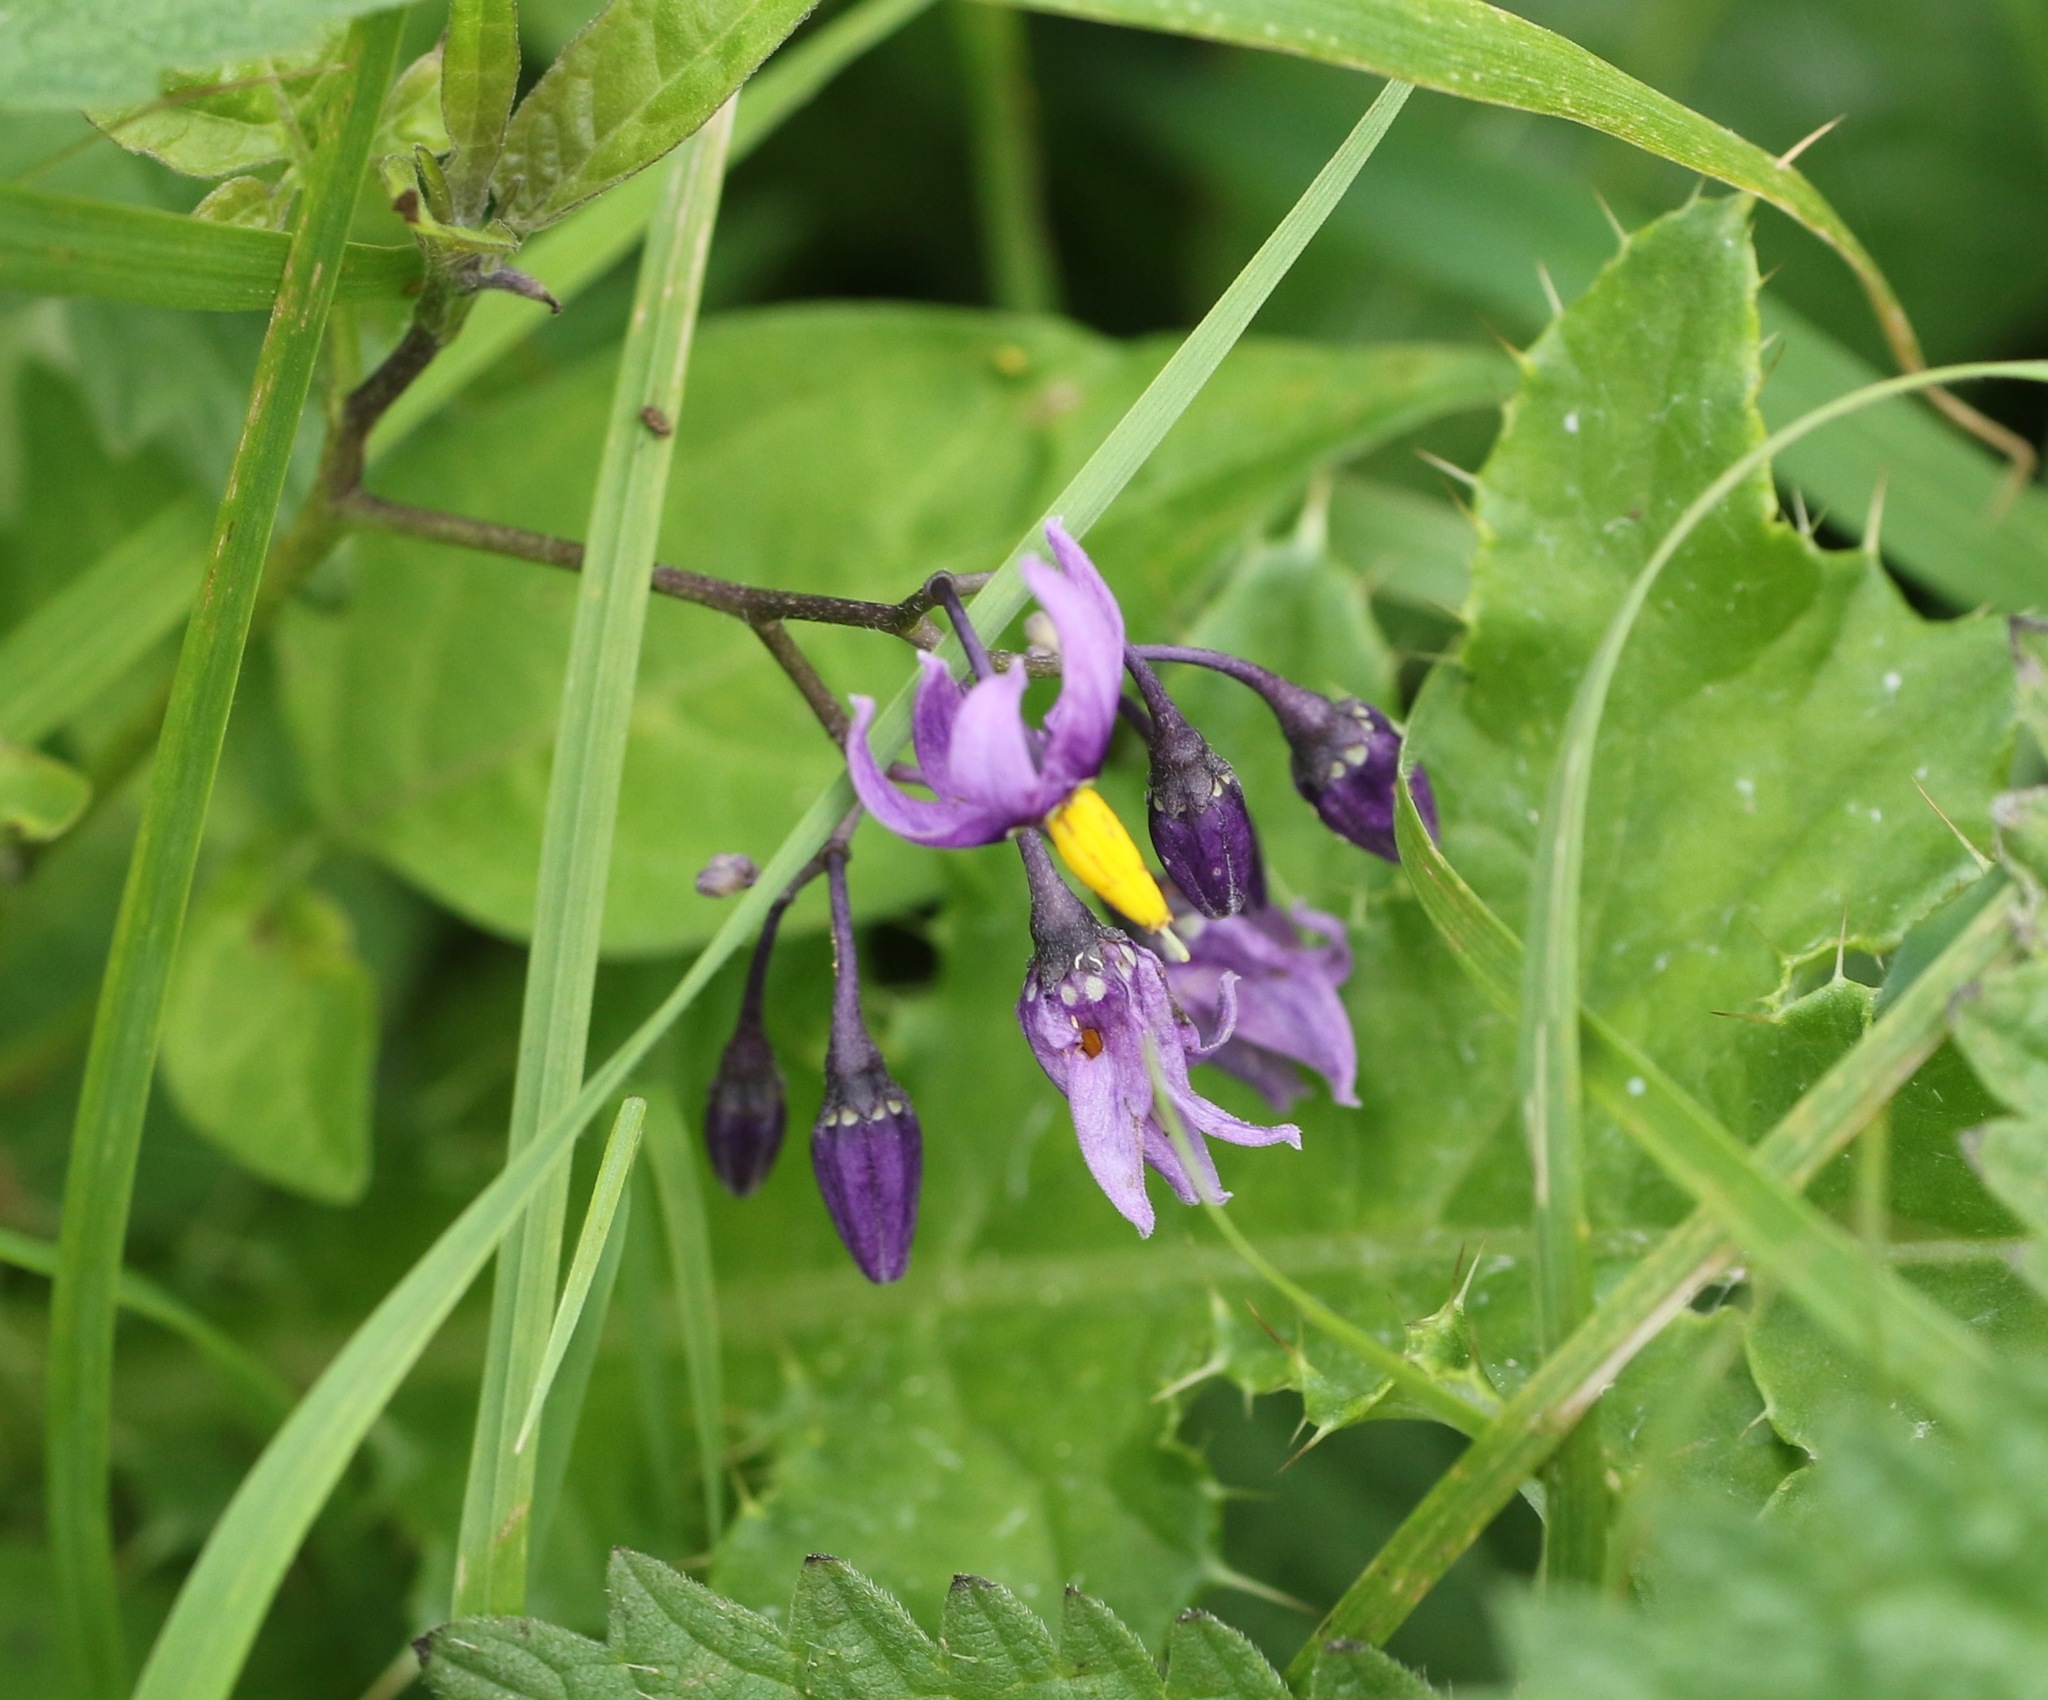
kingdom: Plantae
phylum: Tracheophyta
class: Magnoliopsida
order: Solanales
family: Solanaceae
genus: Solanum
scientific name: Solanum dulcamara
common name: Climbing nightshade
